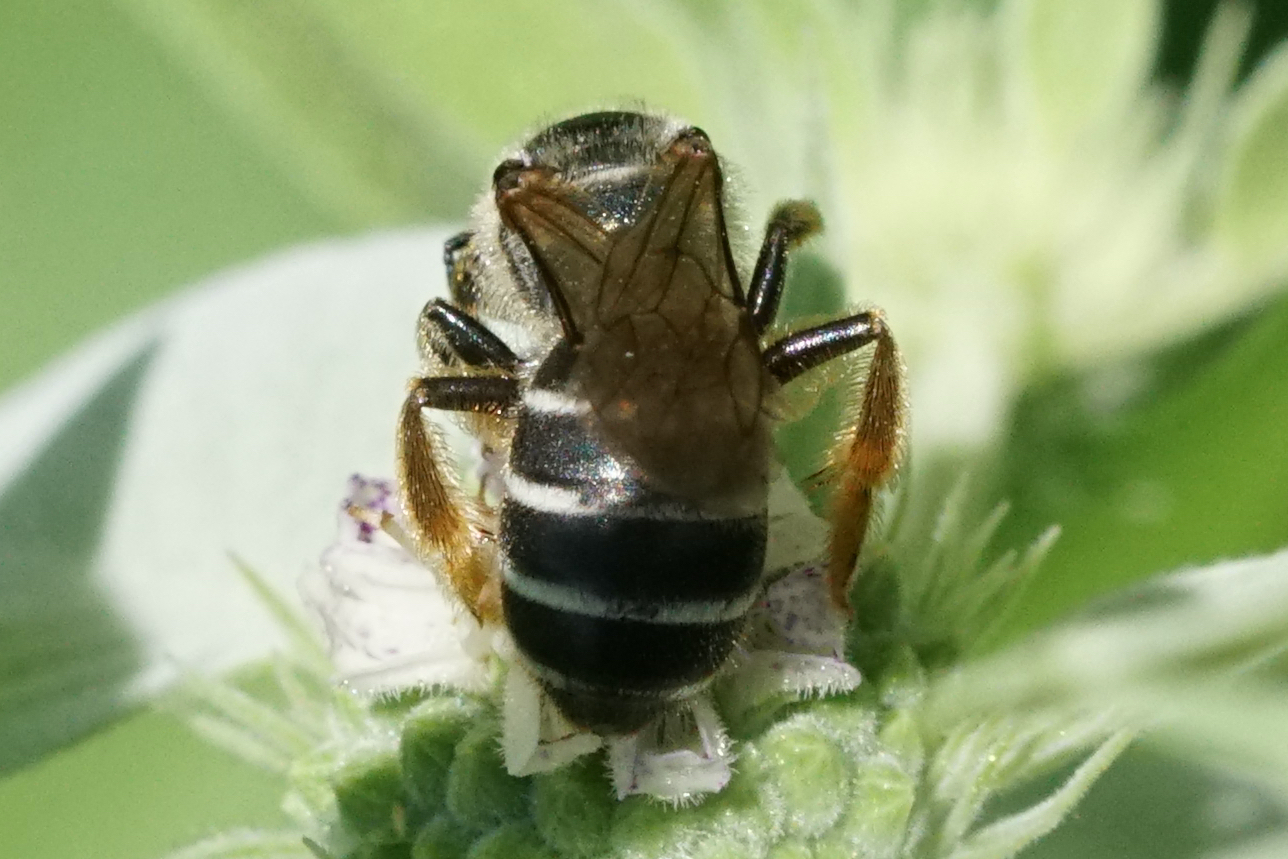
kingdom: Animalia
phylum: Arthropoda
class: Insecta
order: Hymenoptera
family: Halictidae
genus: Halictus
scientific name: Halictus rubicundus
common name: Orange-legged furrow bee
